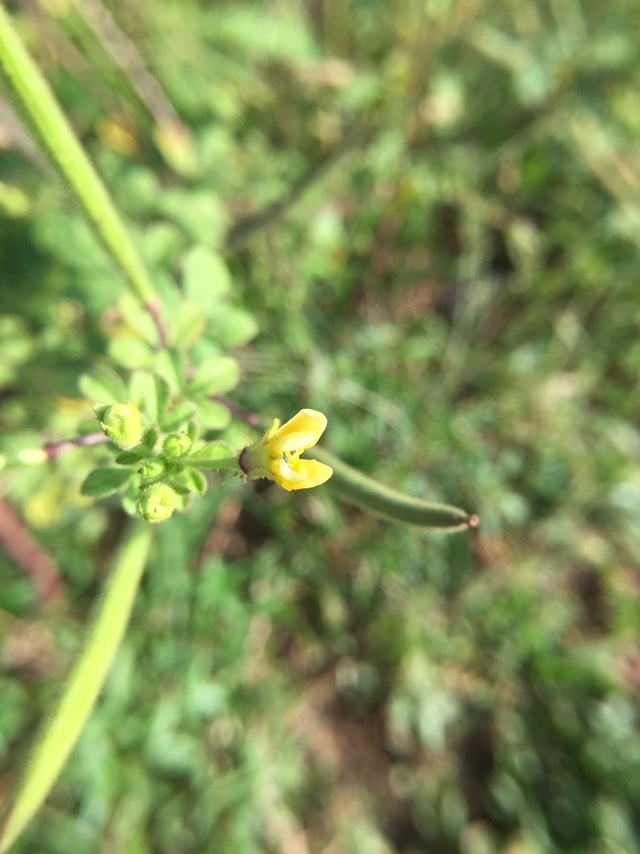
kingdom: Plantae
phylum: Tracheophyta
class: Magnoliopsida
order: Brassicales
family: Cleomaceae
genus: Arivela
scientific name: Arivela viscosa
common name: Asian spiderflower
